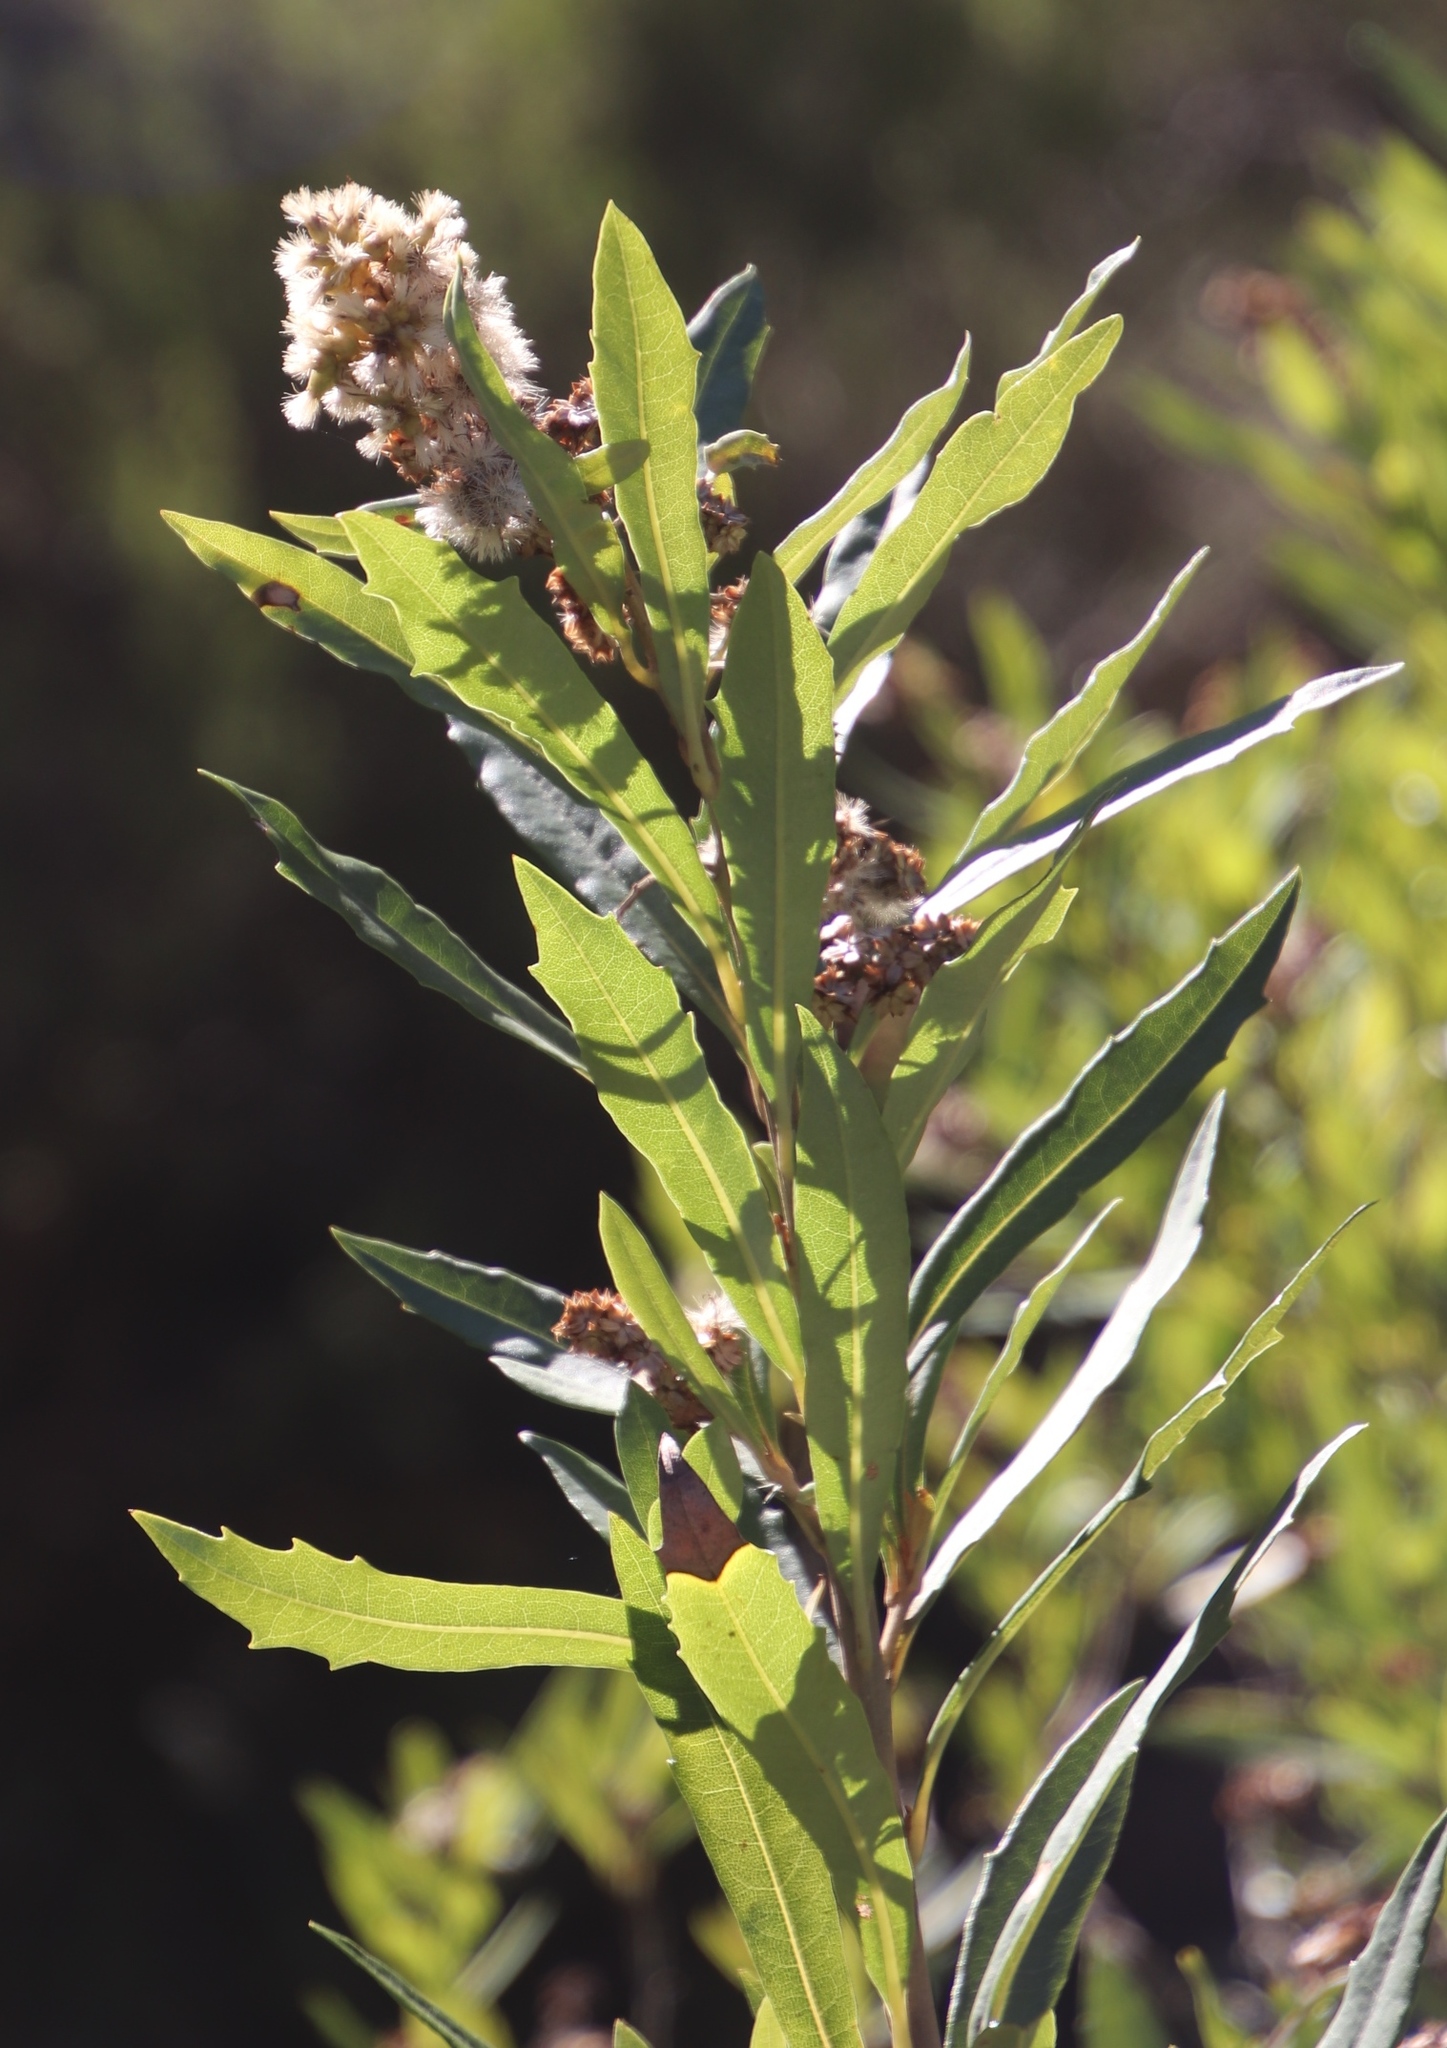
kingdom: Plantae
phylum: Tracheophyta
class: Magnoliopsida
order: Asterales
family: Asteraceae
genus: Brachylaena
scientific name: Brachylaena neriifolia
